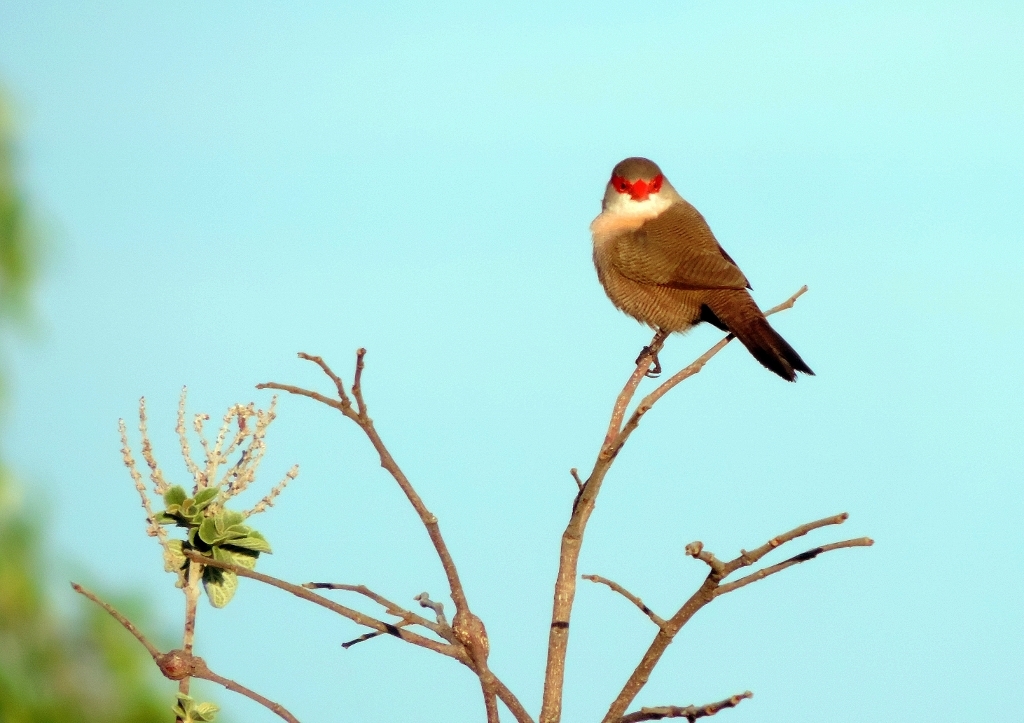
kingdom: Animalia
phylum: Chordata
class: Aves
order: Passeriformes
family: Estrildidae
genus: Estrilda
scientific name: Estrilda astrild
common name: Common waxbill
